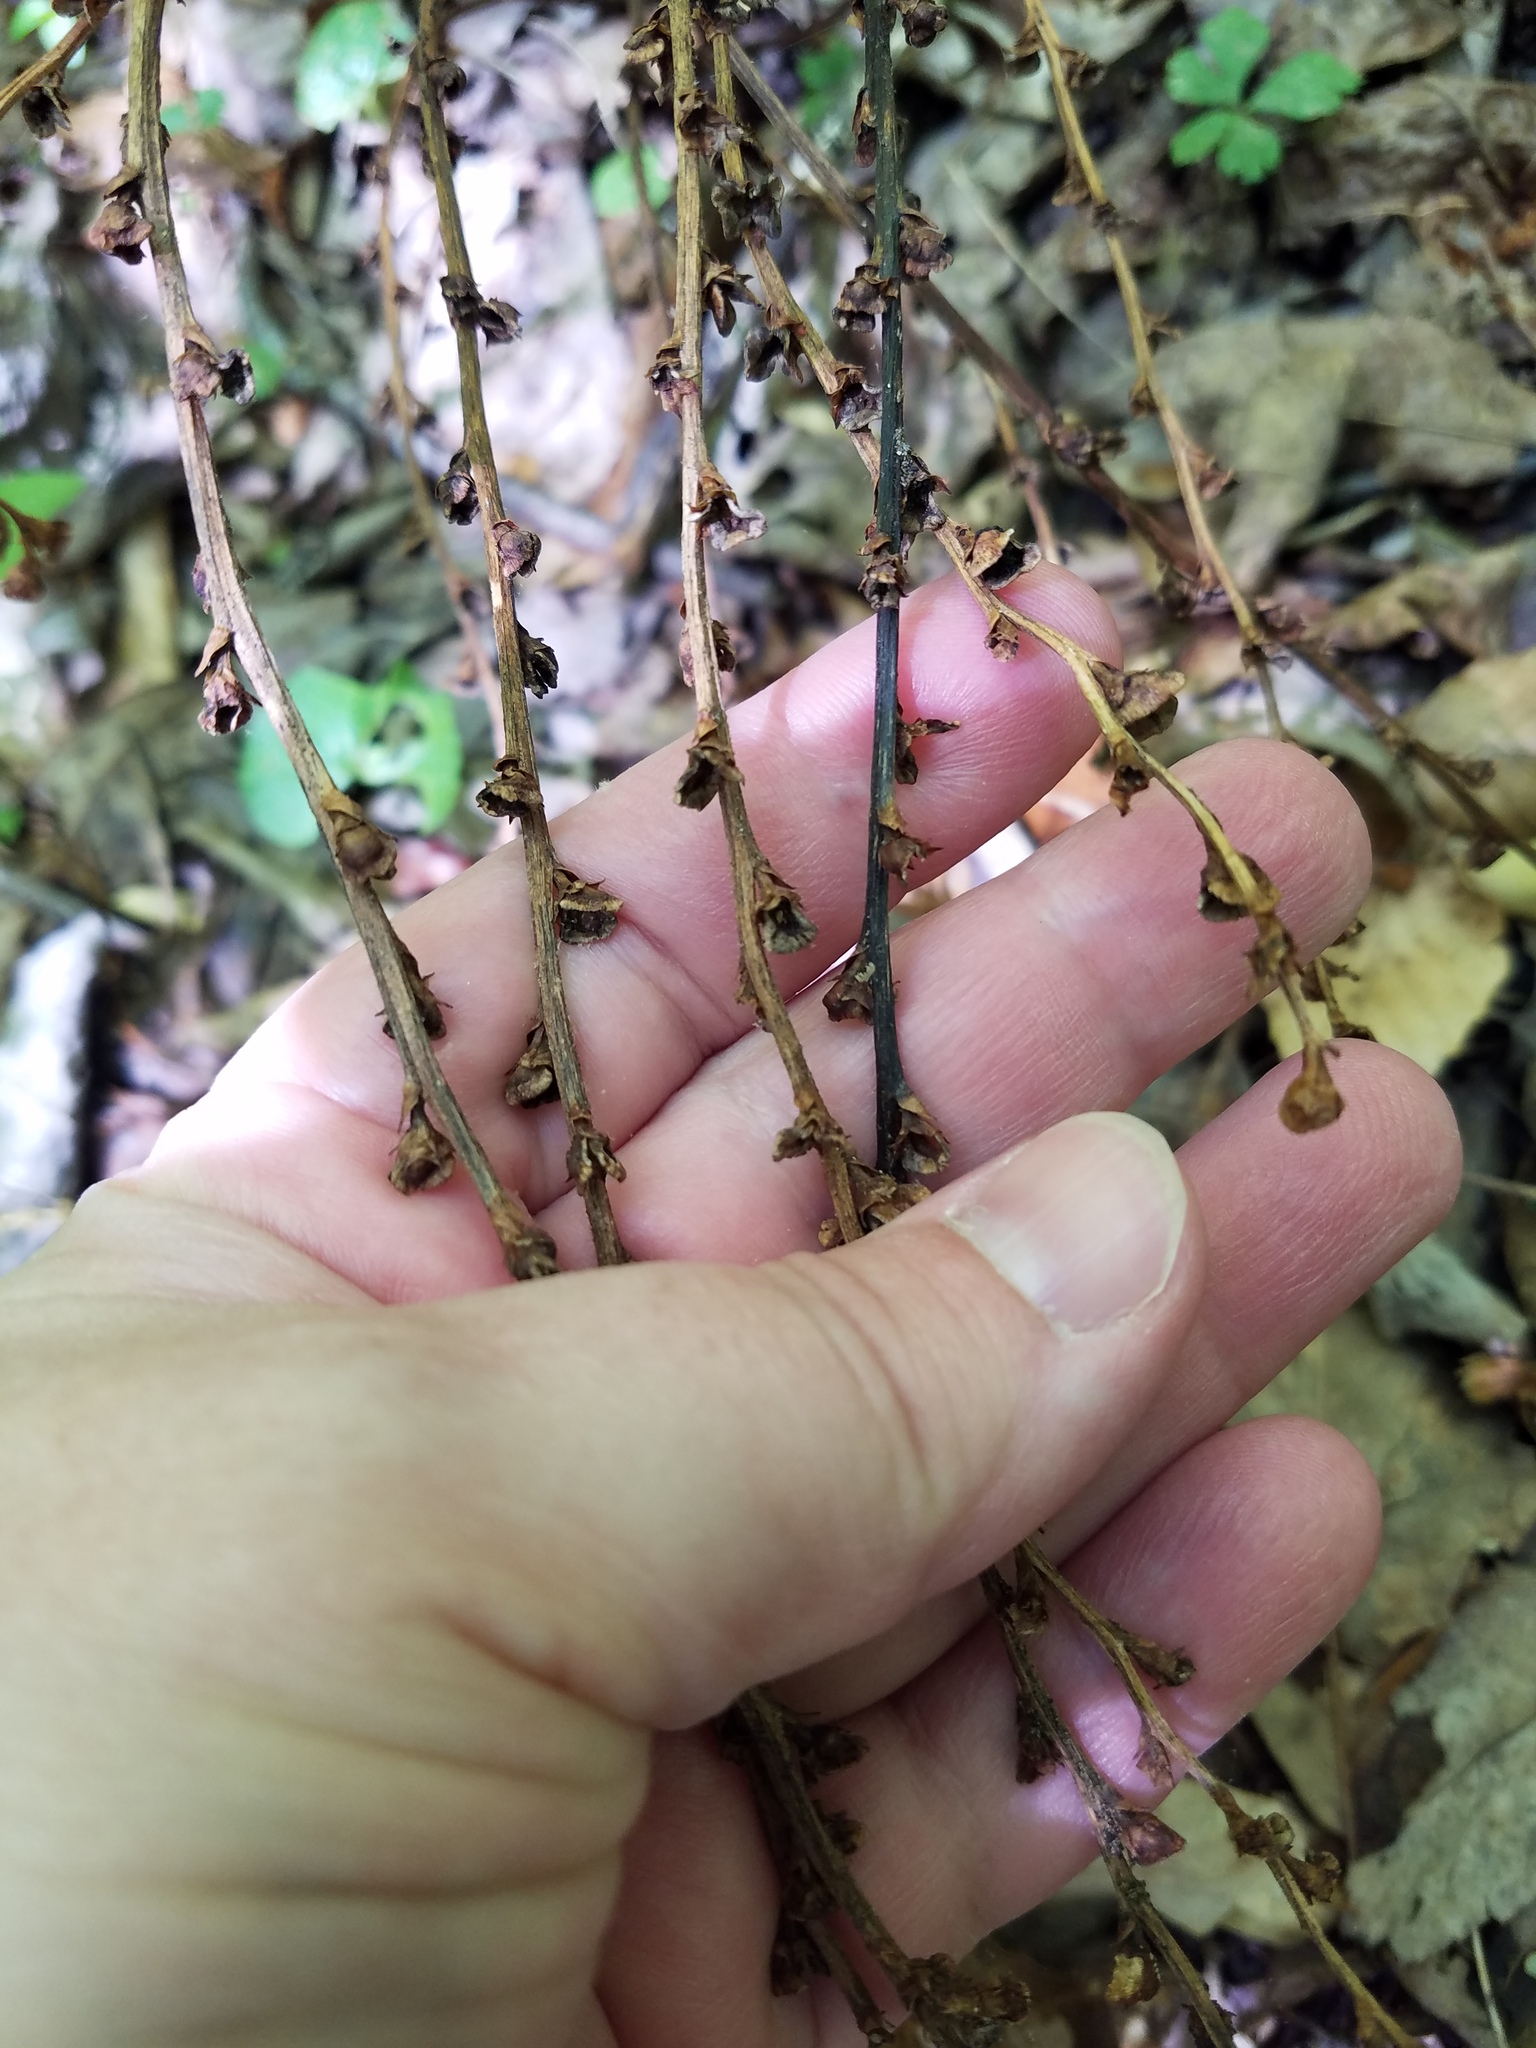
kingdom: Plantae
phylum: Tracheophyta
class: Magnoliopsida
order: Lamiales
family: Orobanchaceae
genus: Epifagus
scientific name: Epifagus virginiana
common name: Beechdrops
